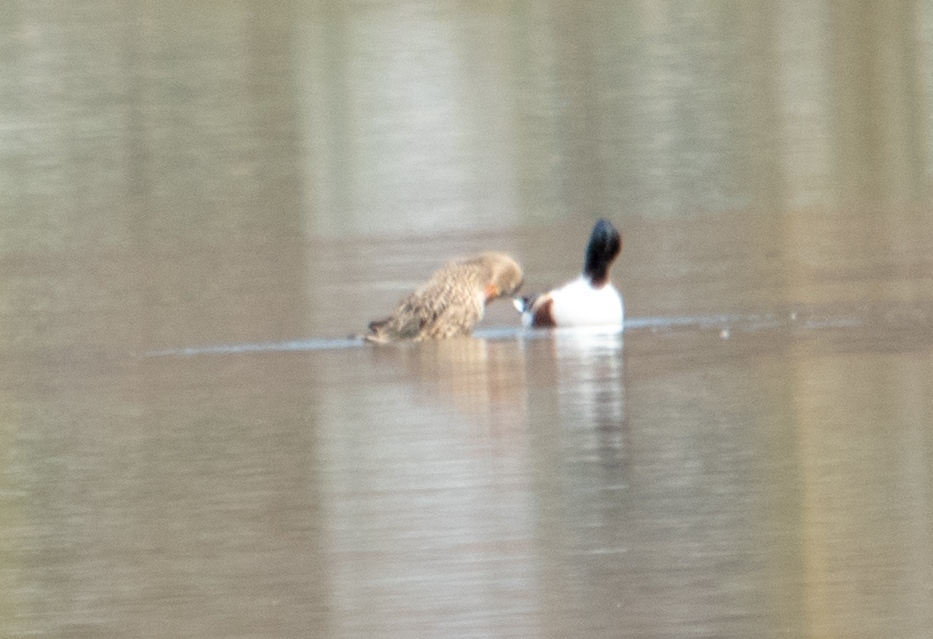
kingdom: Animalia
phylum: Chordata
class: Aves
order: Anseriformes
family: Anatidae
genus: Spatula
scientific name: Spatula clypeata
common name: Northern shoveler
